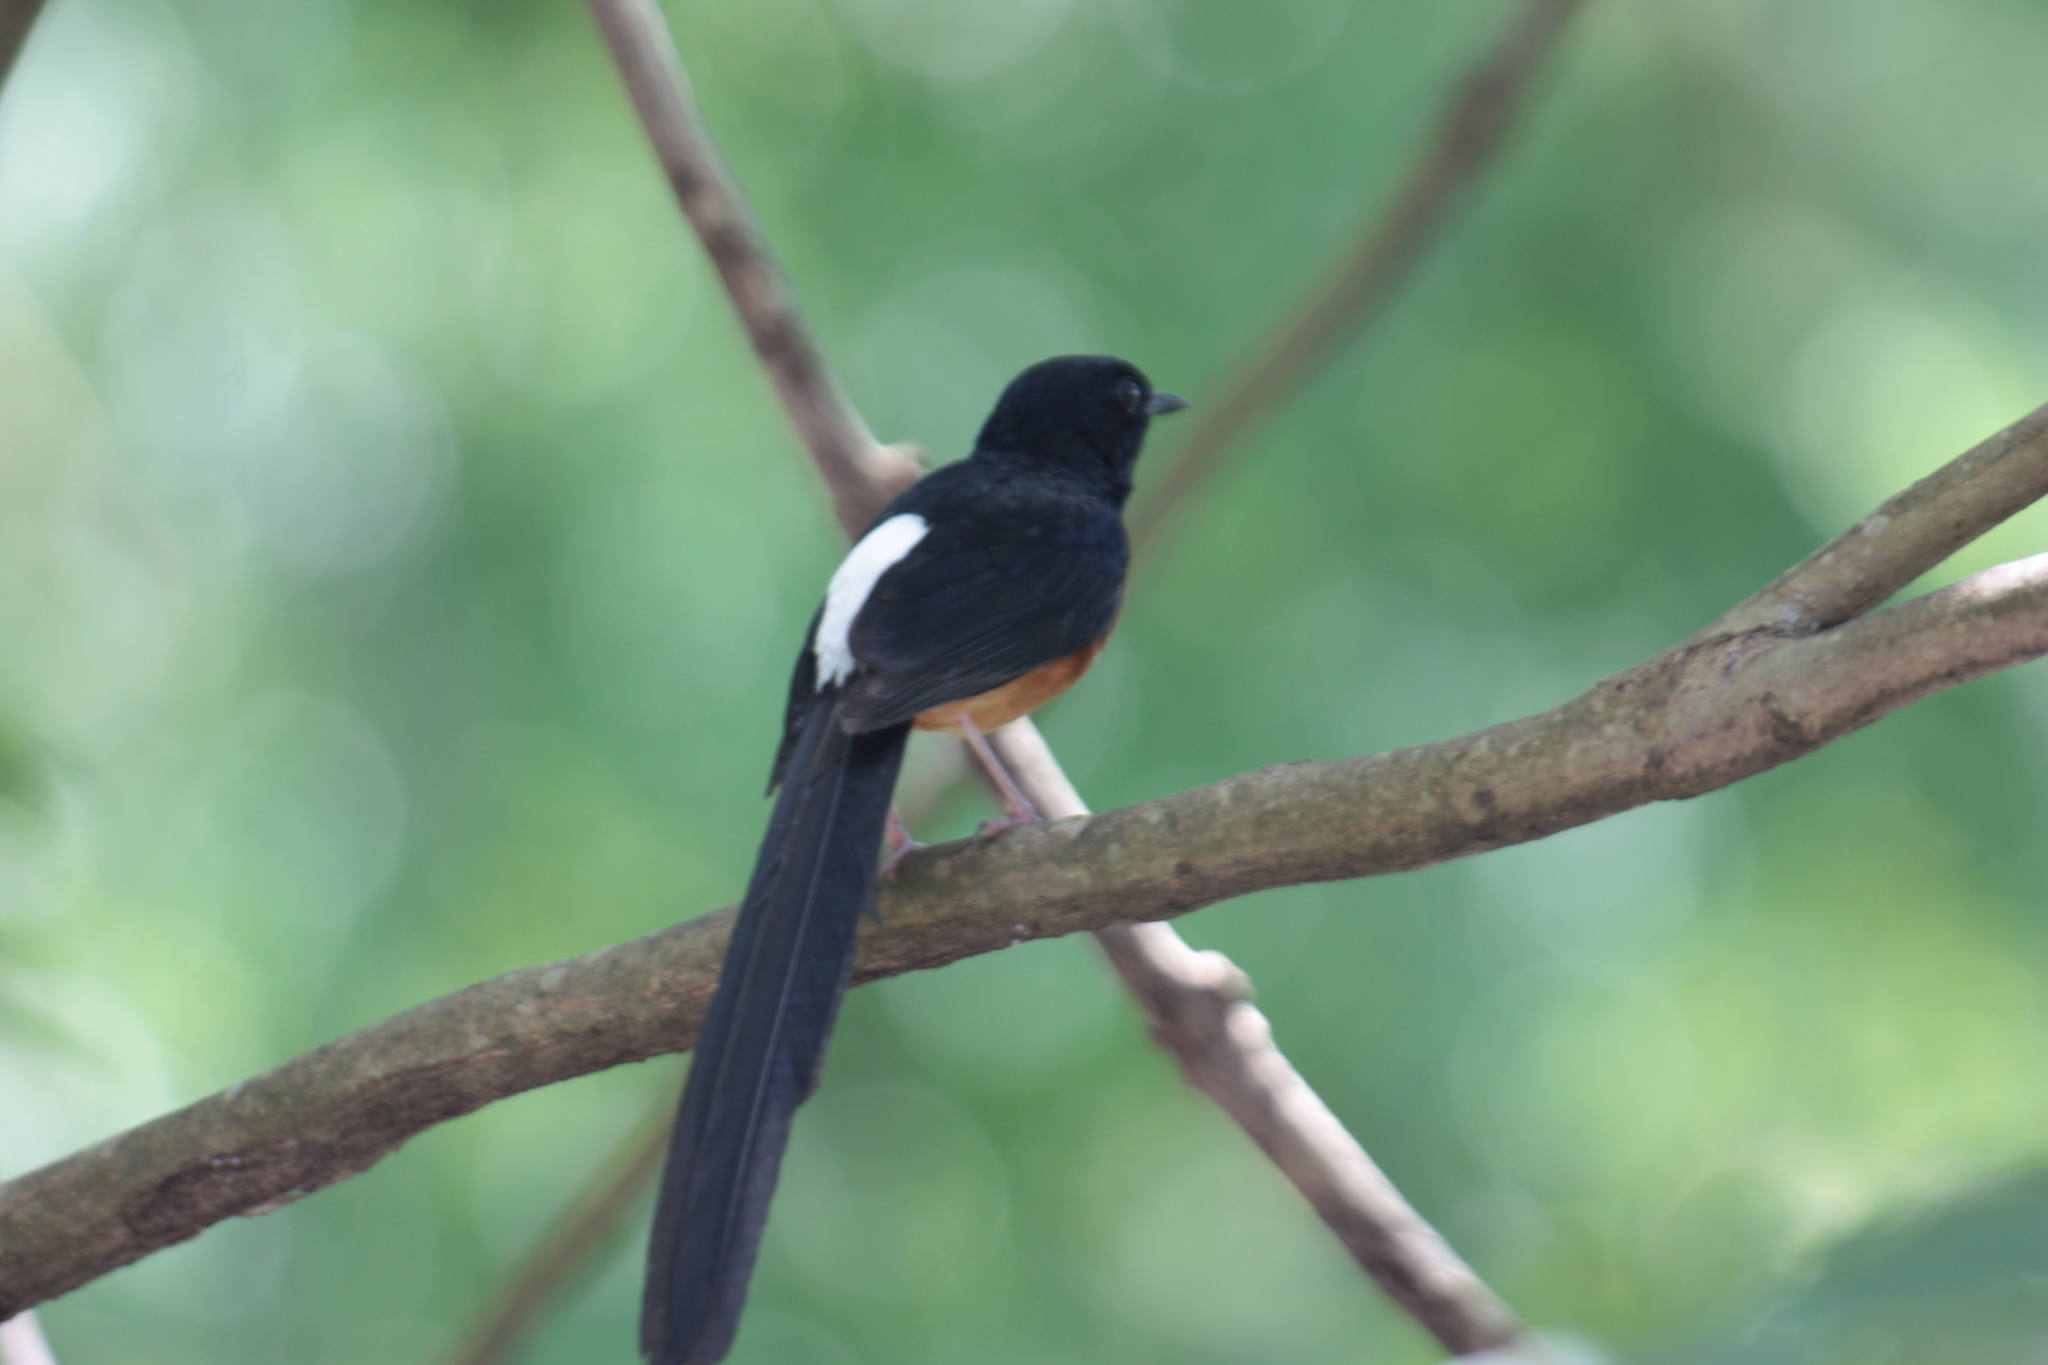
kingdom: Animalia
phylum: Chordata
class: Aves
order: Passeriformes
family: Muscicapidae
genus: Copsychus
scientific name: Copsychus malabaricus
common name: White-rumped shama
